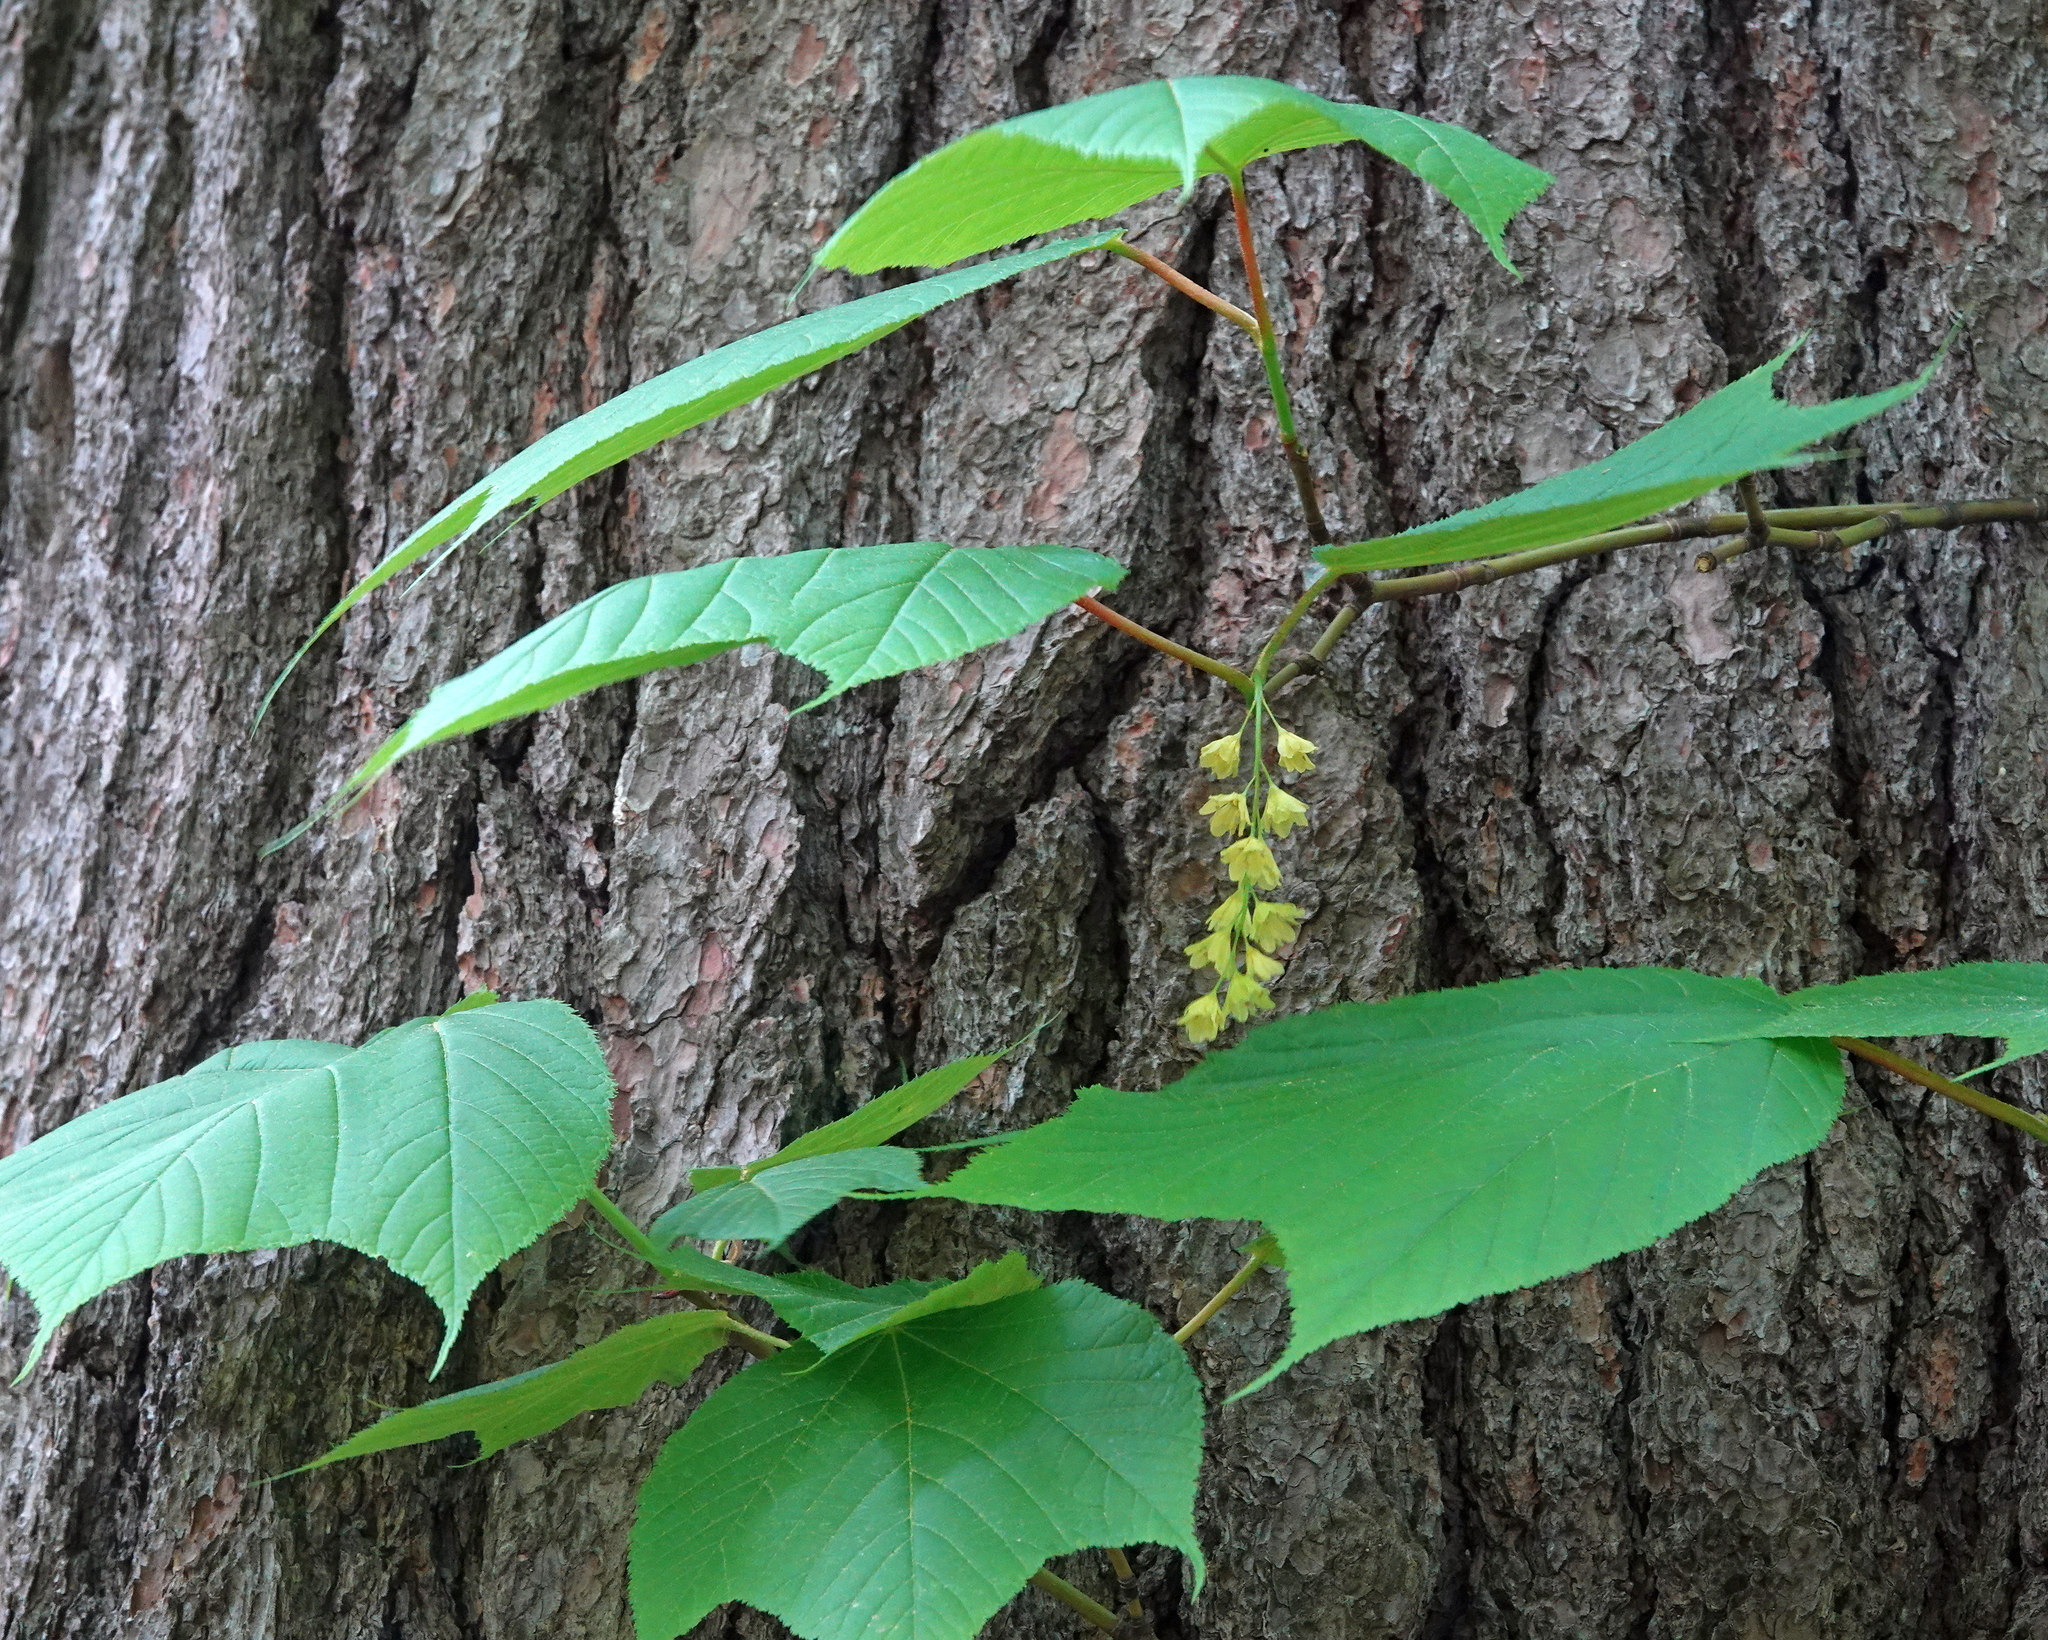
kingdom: Plantae
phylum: Tracheophyta
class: Magnoliopsida
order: Sapindales
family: Sapindaceae
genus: Acer
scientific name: Acer pensylvanicum
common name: Moosewood
